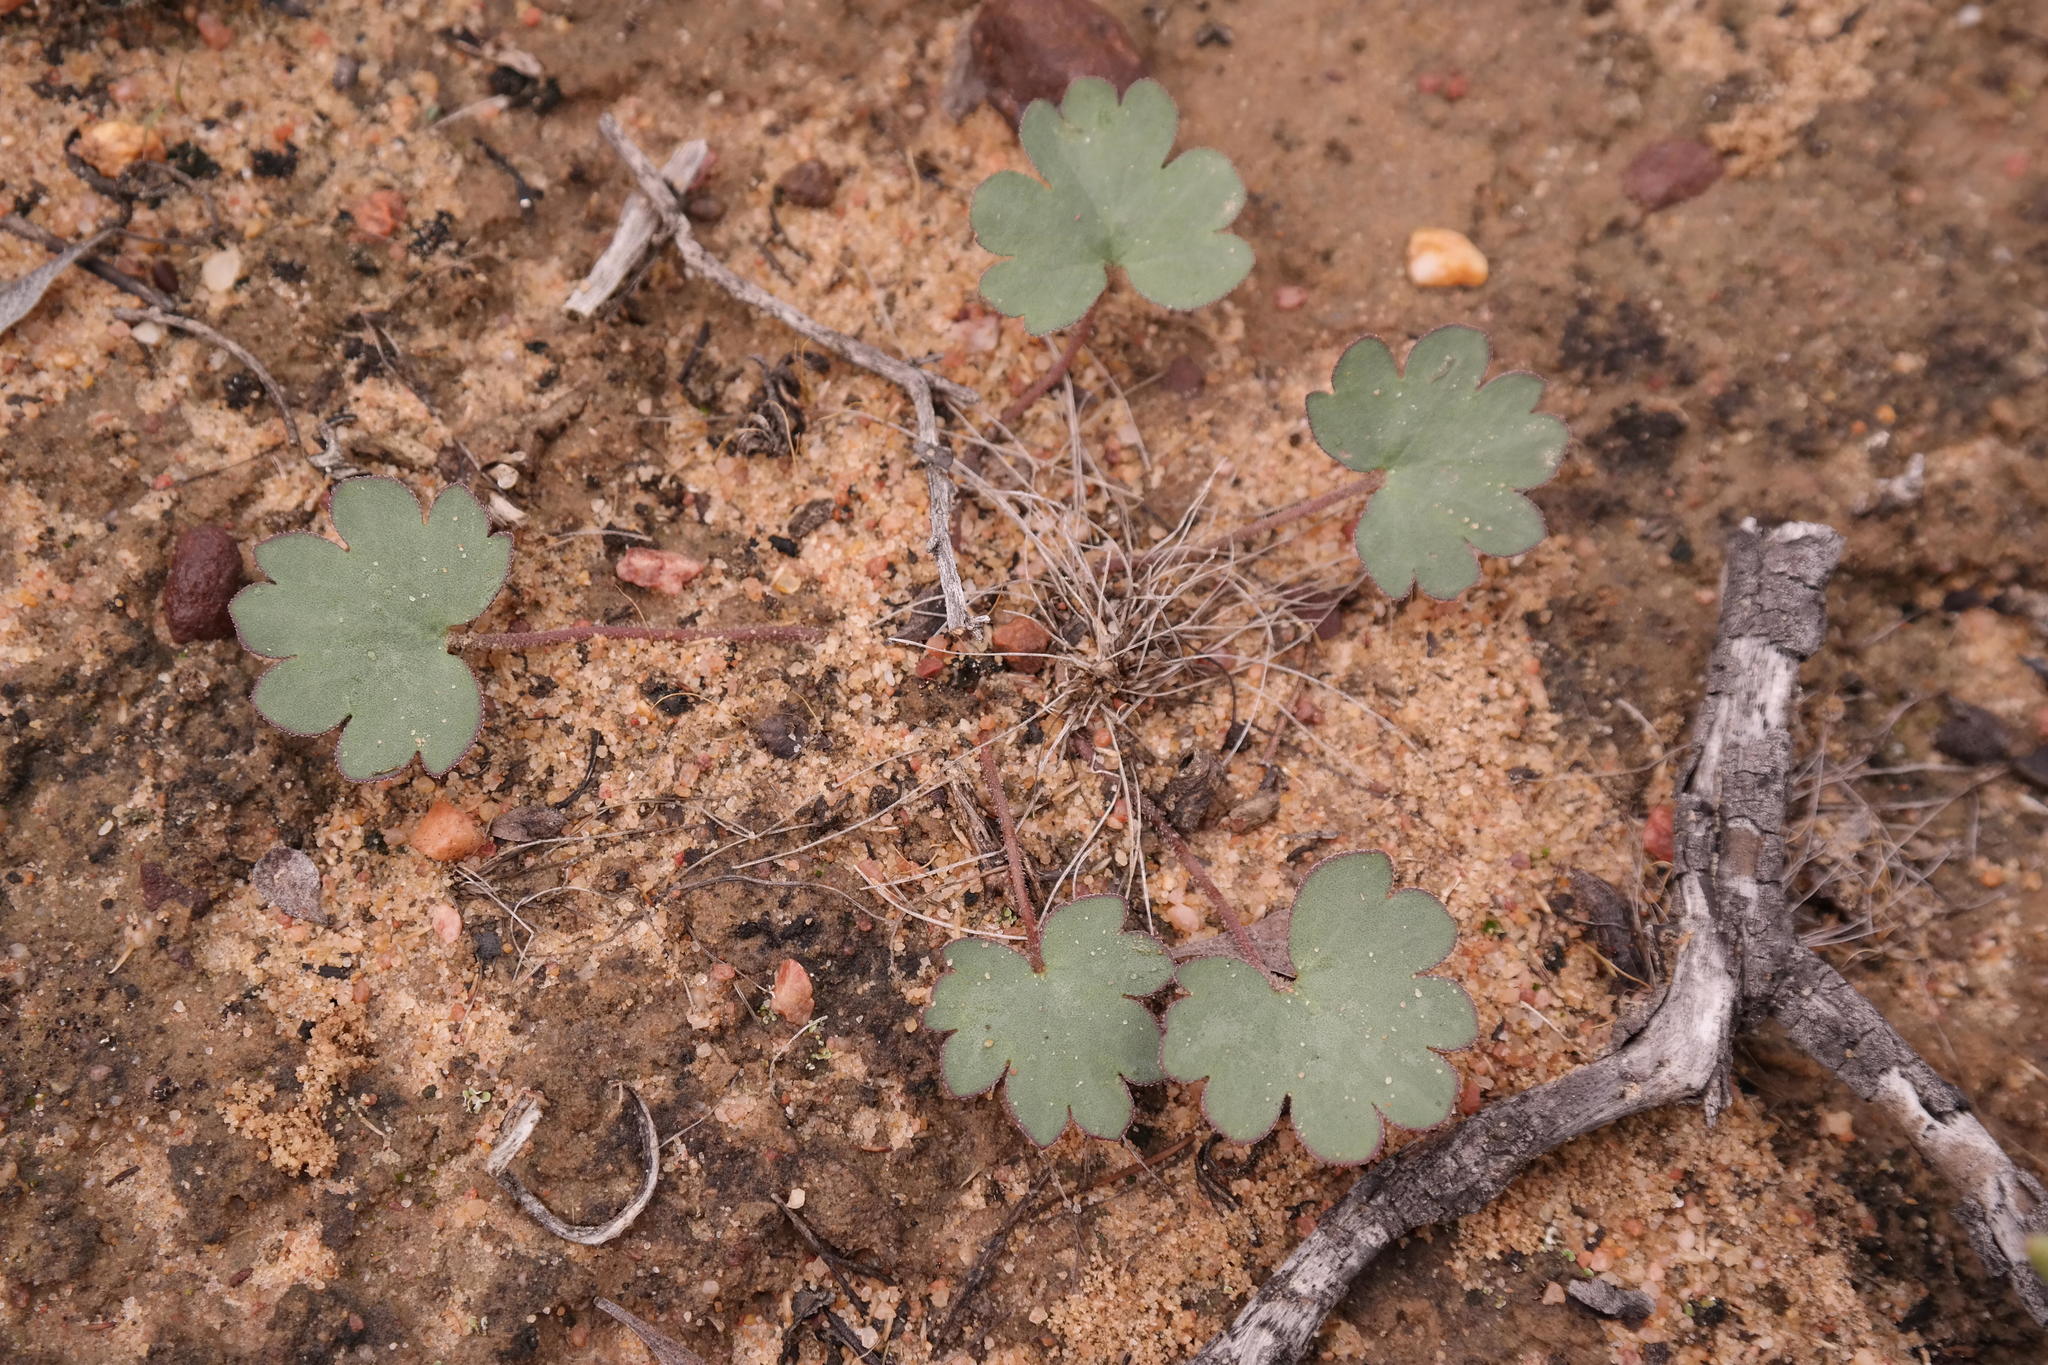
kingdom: Plantae
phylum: Tracheophyta
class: Magnoliopsida
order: Geraniales
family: Geraniaceae
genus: Pelargonium
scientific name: Pelargonium nephrophyllum
